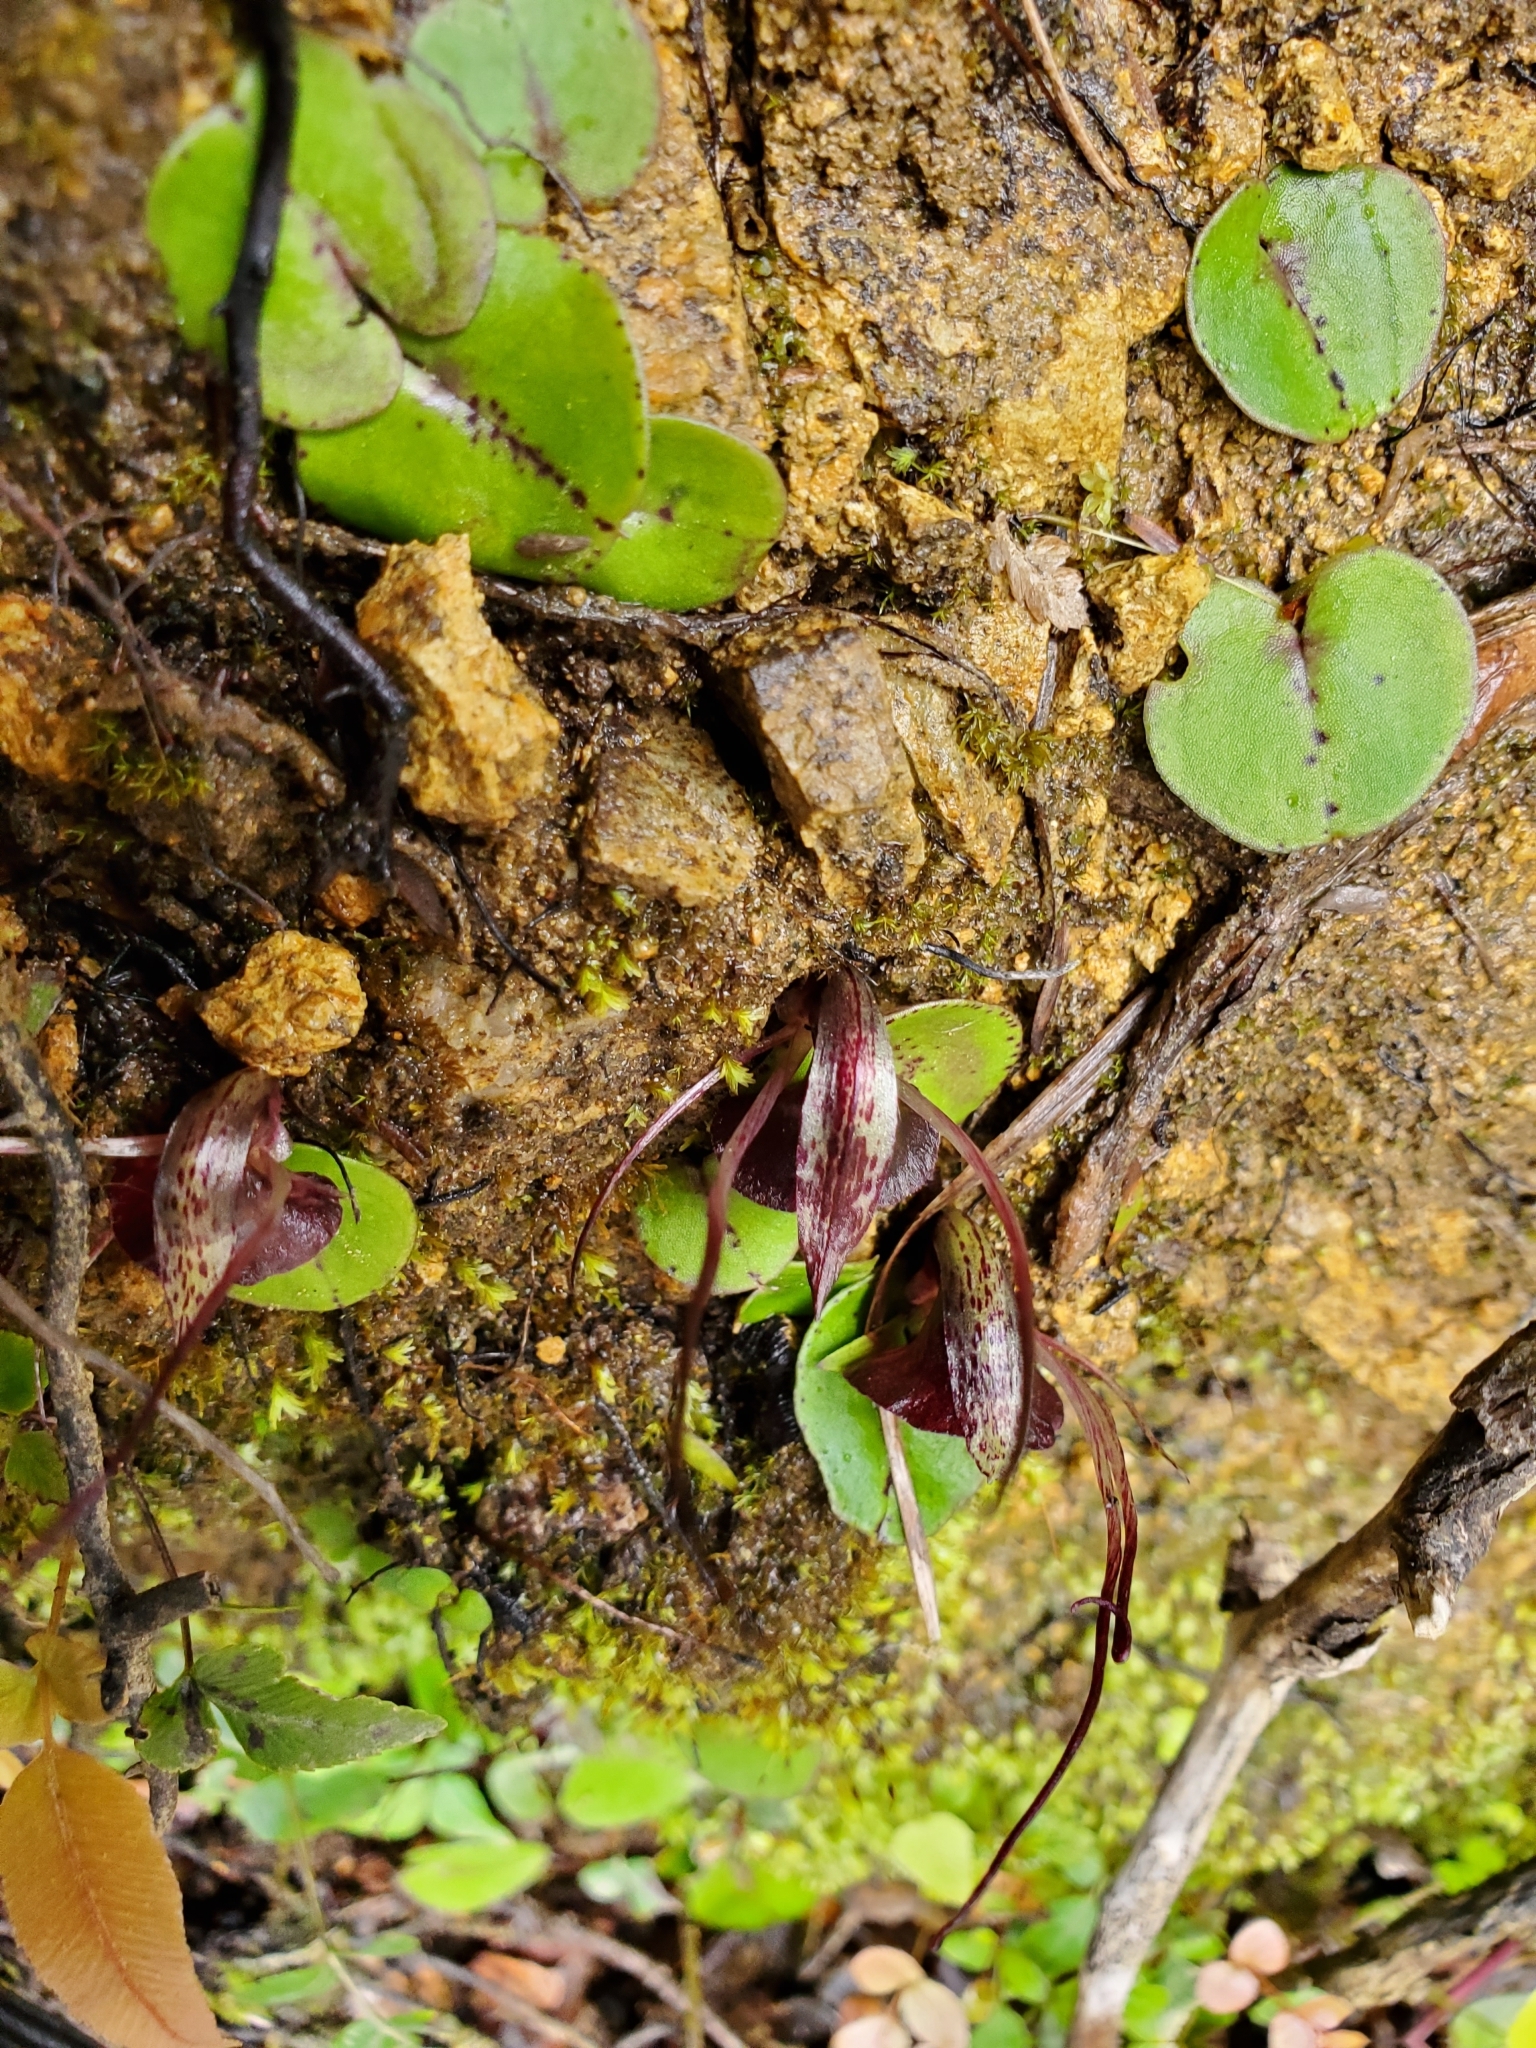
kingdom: Plantae
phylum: Tracheophyta
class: Liliopsida
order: Asparagales
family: Orchidaceae
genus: Corybas
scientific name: Corybas macranthus
